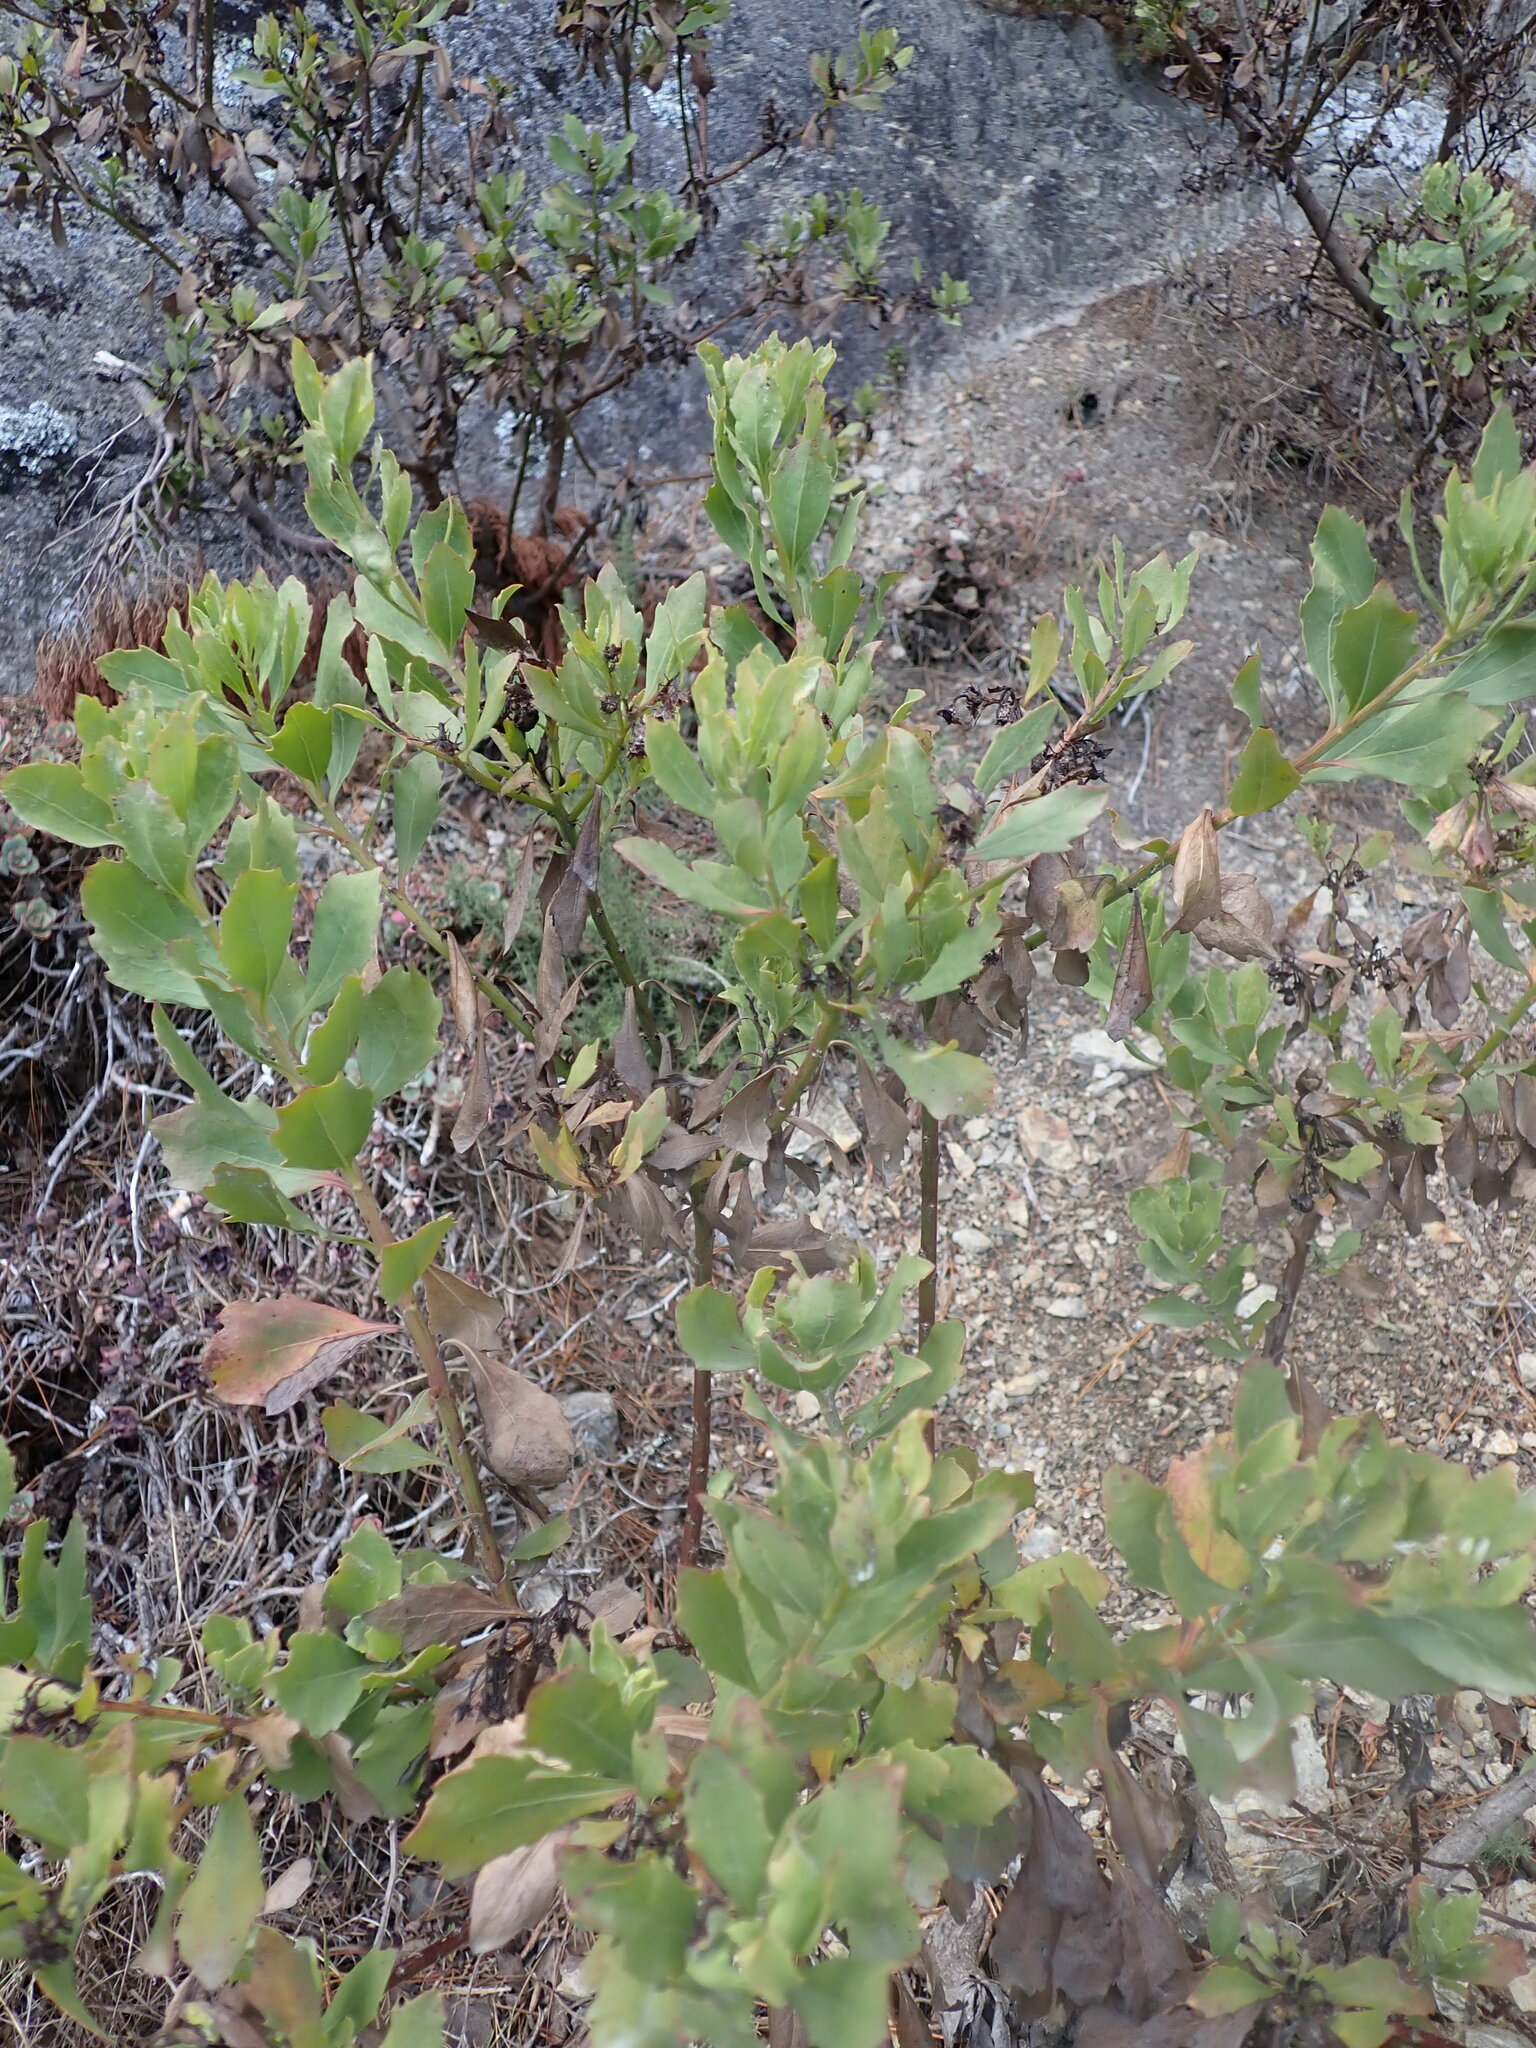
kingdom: Plantae
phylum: Tracheophyta
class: Magnoliopsida
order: Asterales
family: Asteraceae
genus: Osteospermum
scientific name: Osteospermum moniliferum
